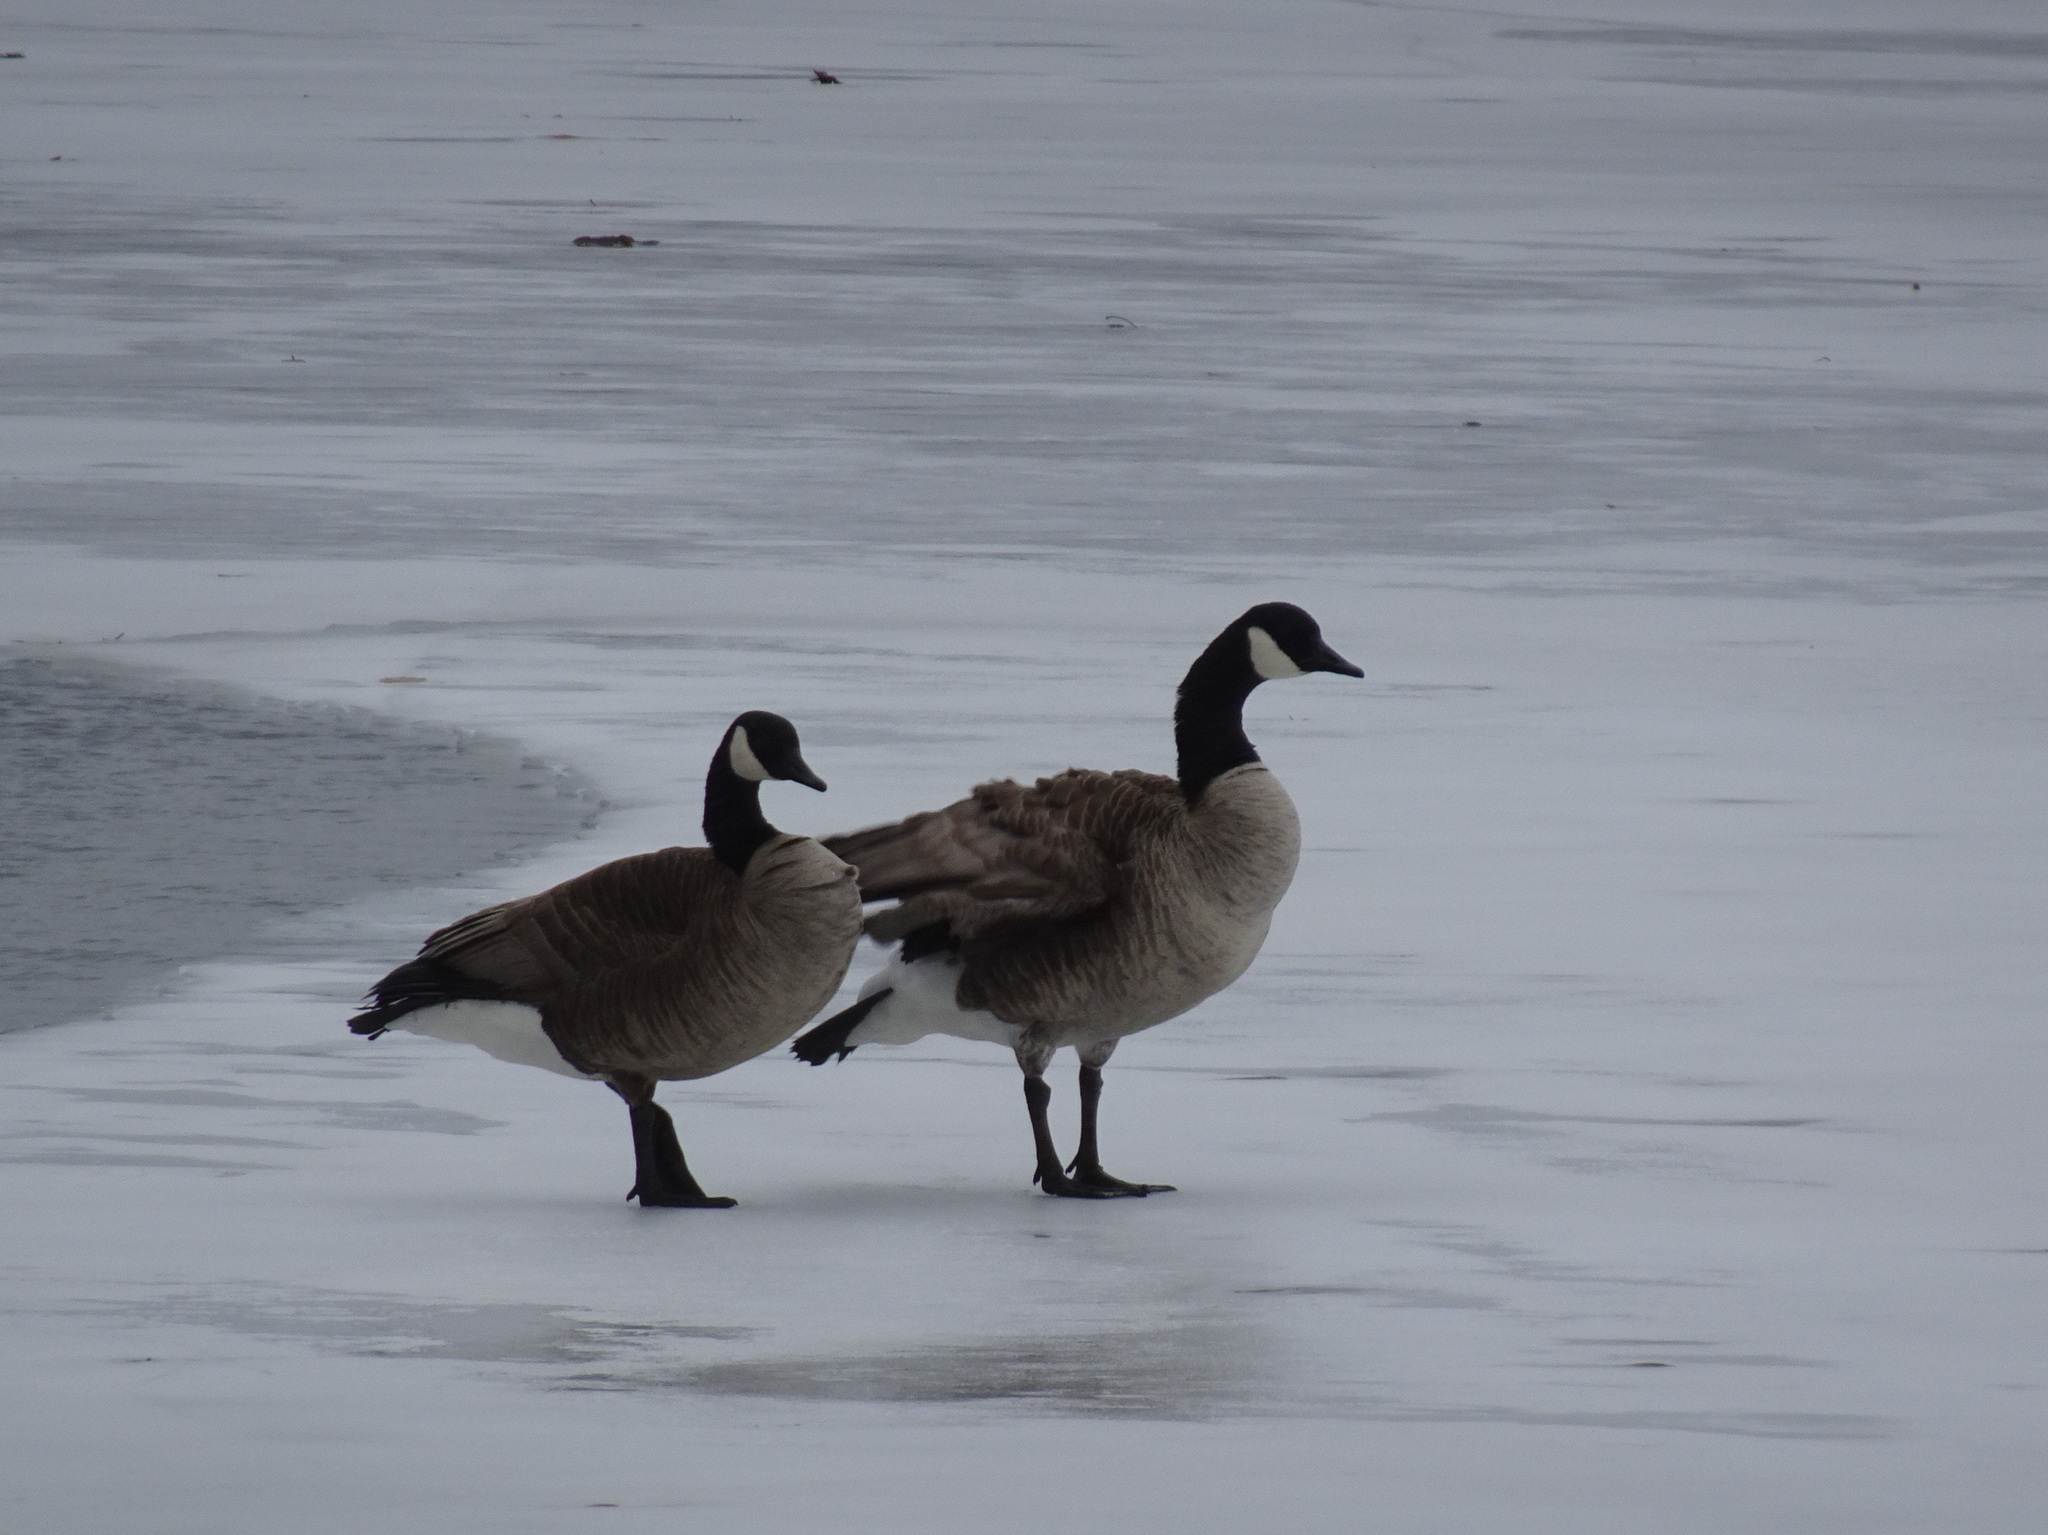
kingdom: Animalia
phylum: Chordata
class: Aves
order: Anseriformes
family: Anatidae
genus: Branta
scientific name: Branta canadensis
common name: Canada goose
